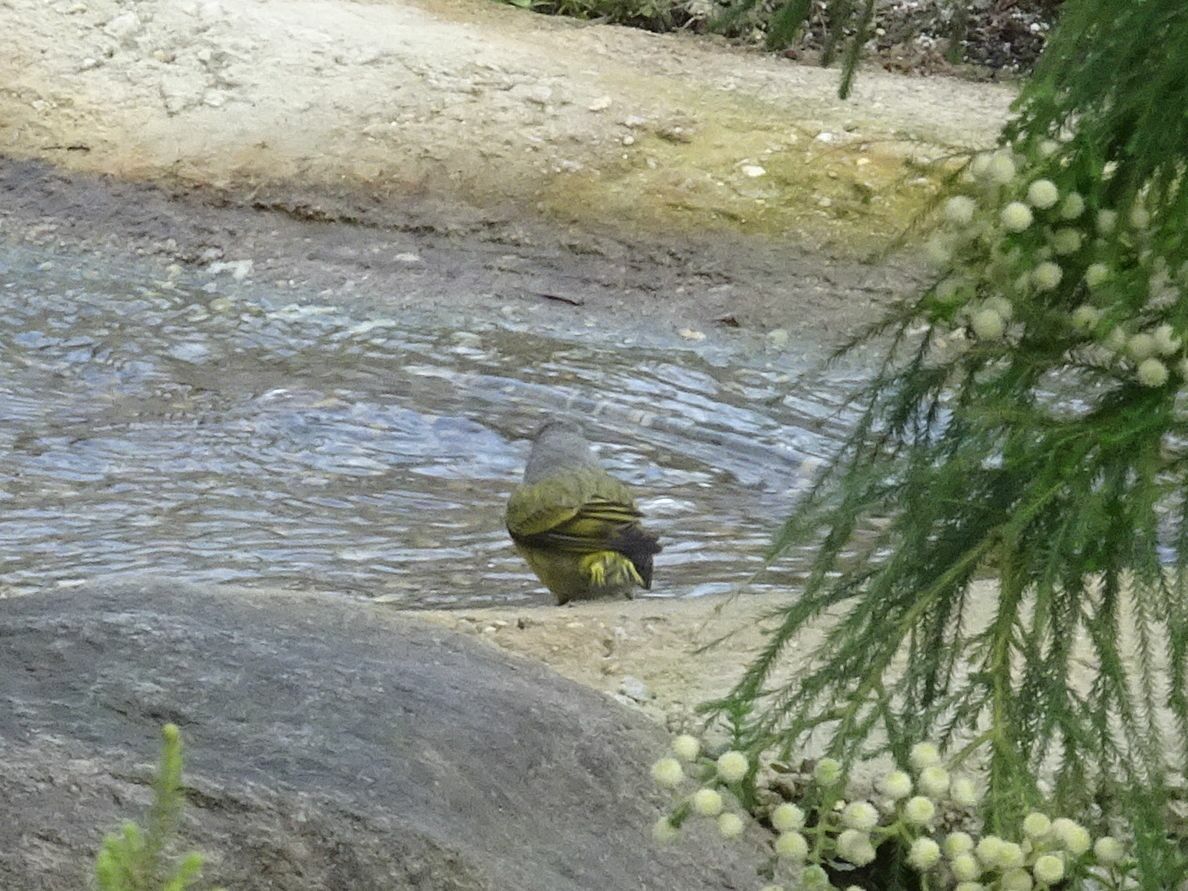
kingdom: Animalia
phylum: Chordata
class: Aves
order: Passeriformes
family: Fringillidae
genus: Serinus
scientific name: Serinus canicollis
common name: Cape canary
